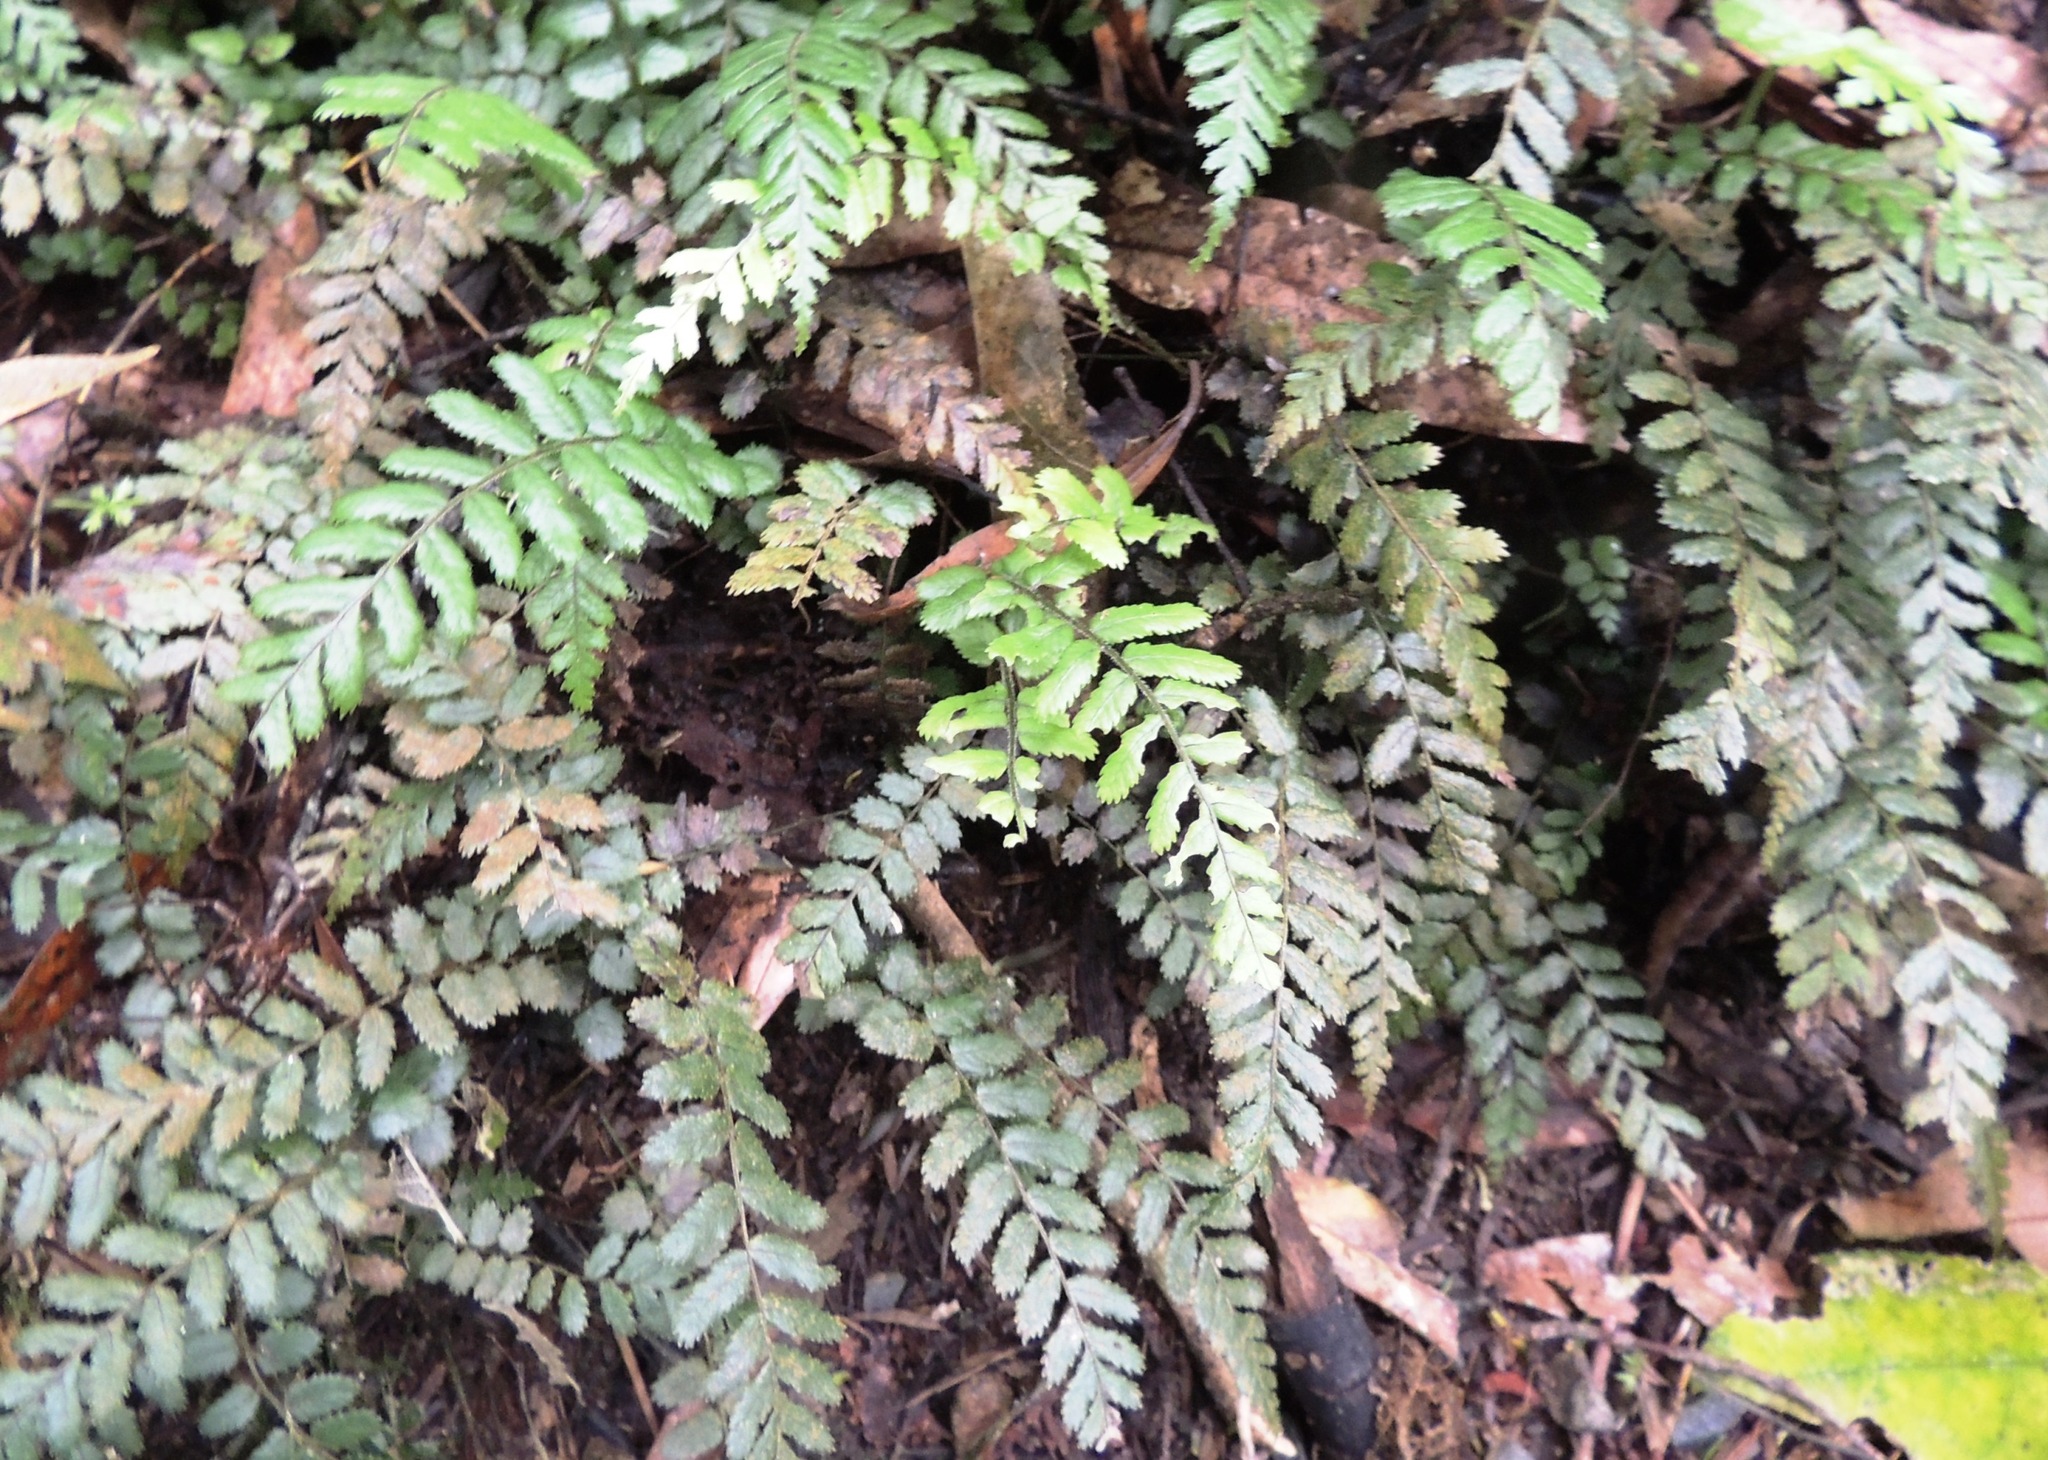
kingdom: Plantae
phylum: Tracheophyta
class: Polypodiopsida
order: Polypodiales
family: Blechnaceae
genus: Icarus
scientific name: Icarus filiformis
